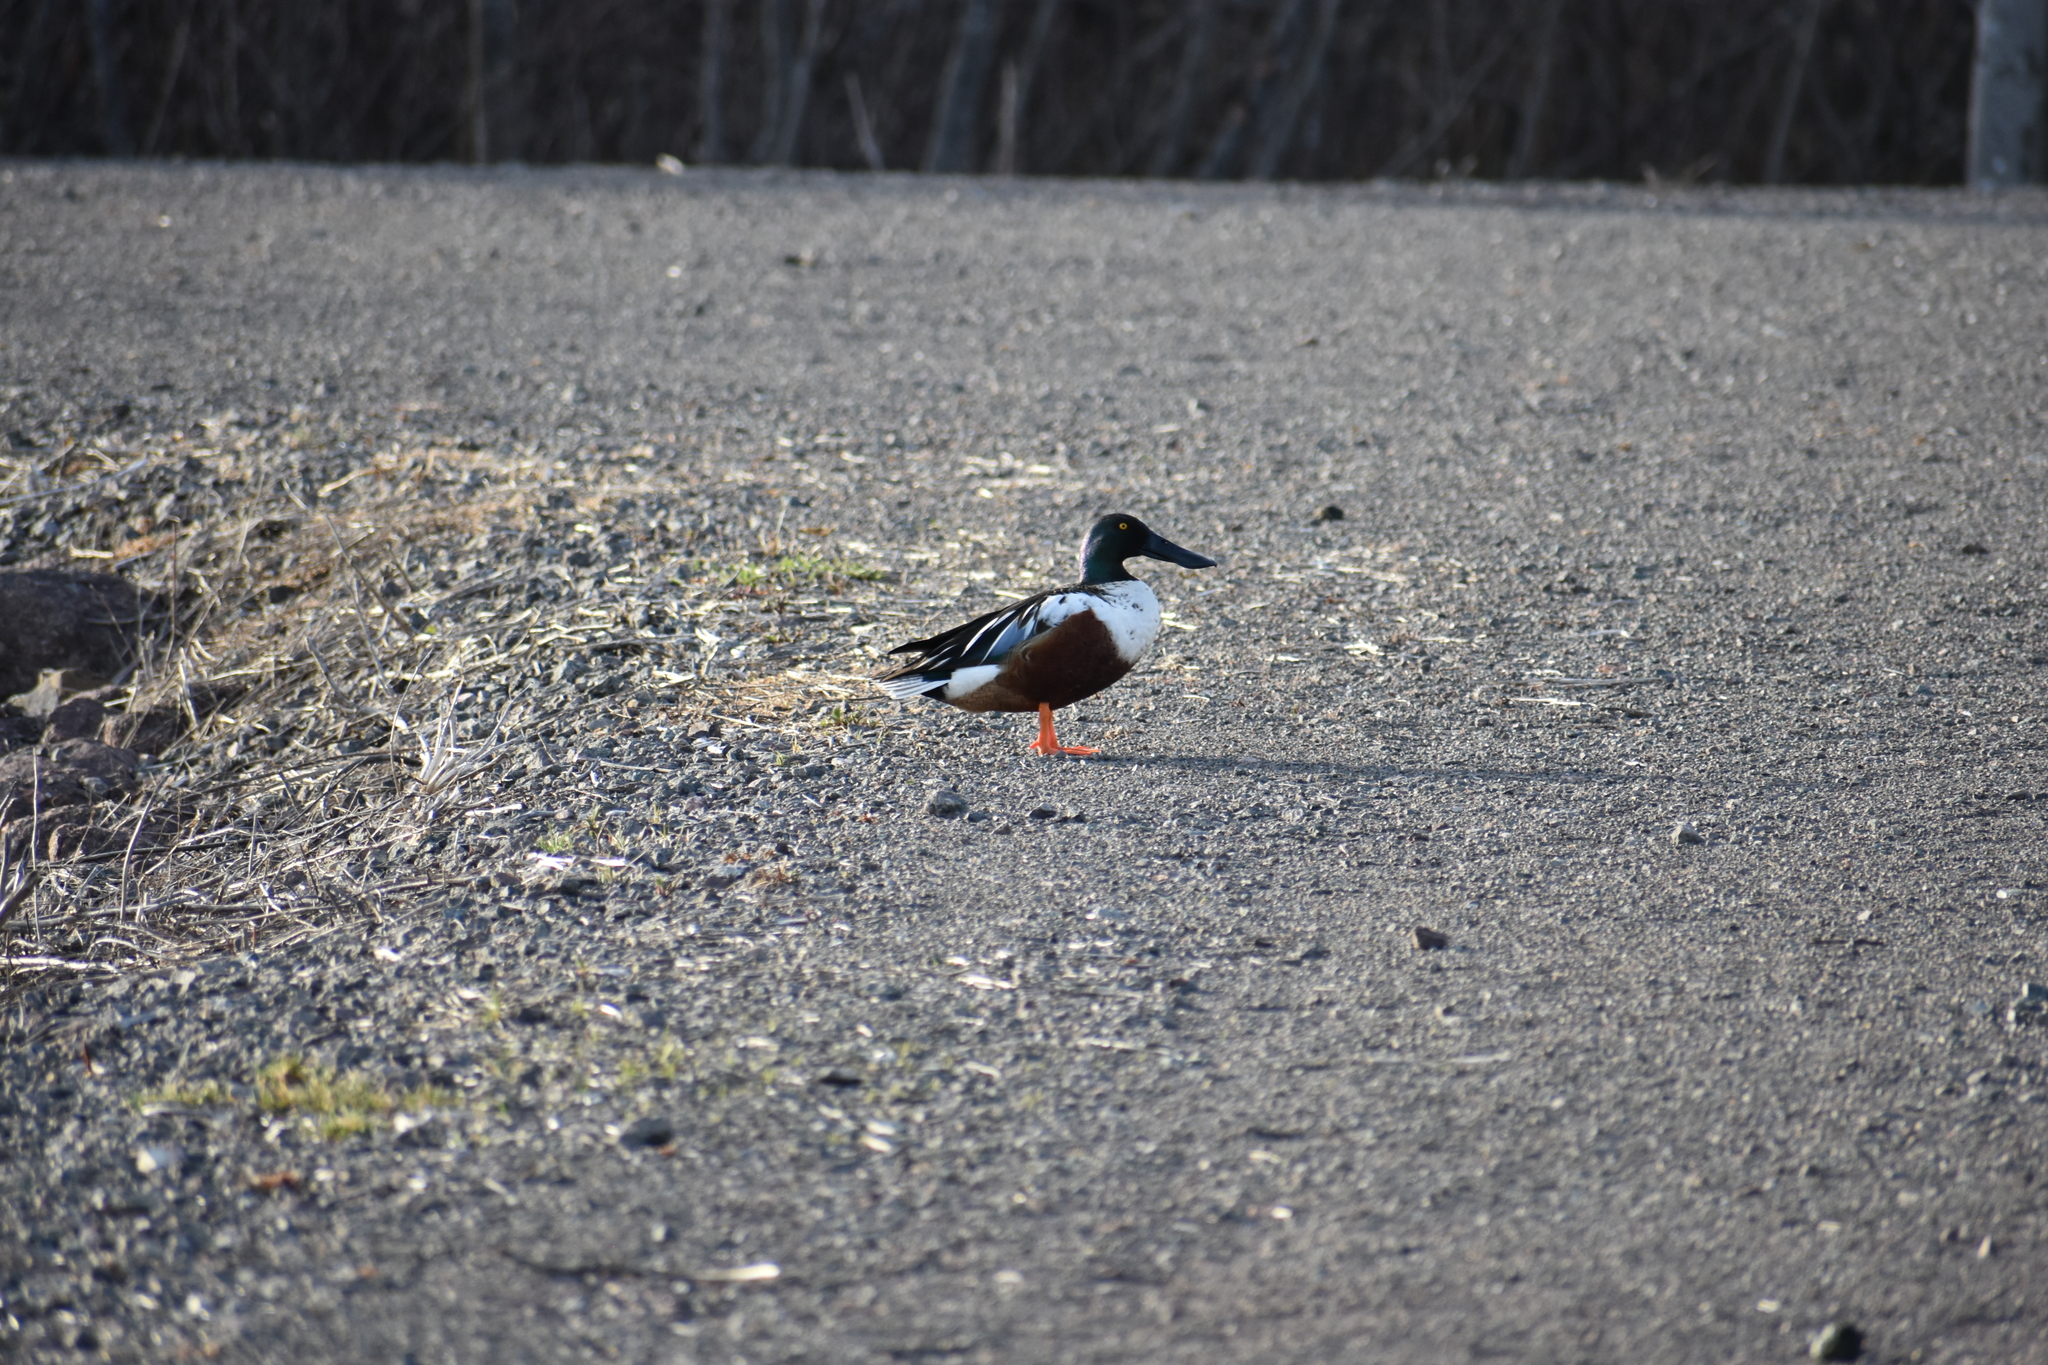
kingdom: Animalia
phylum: Chordata
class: Aves
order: Anseriformes
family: Anatidae
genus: Spatula
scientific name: Spatula clypeata
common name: Northern shoveler
